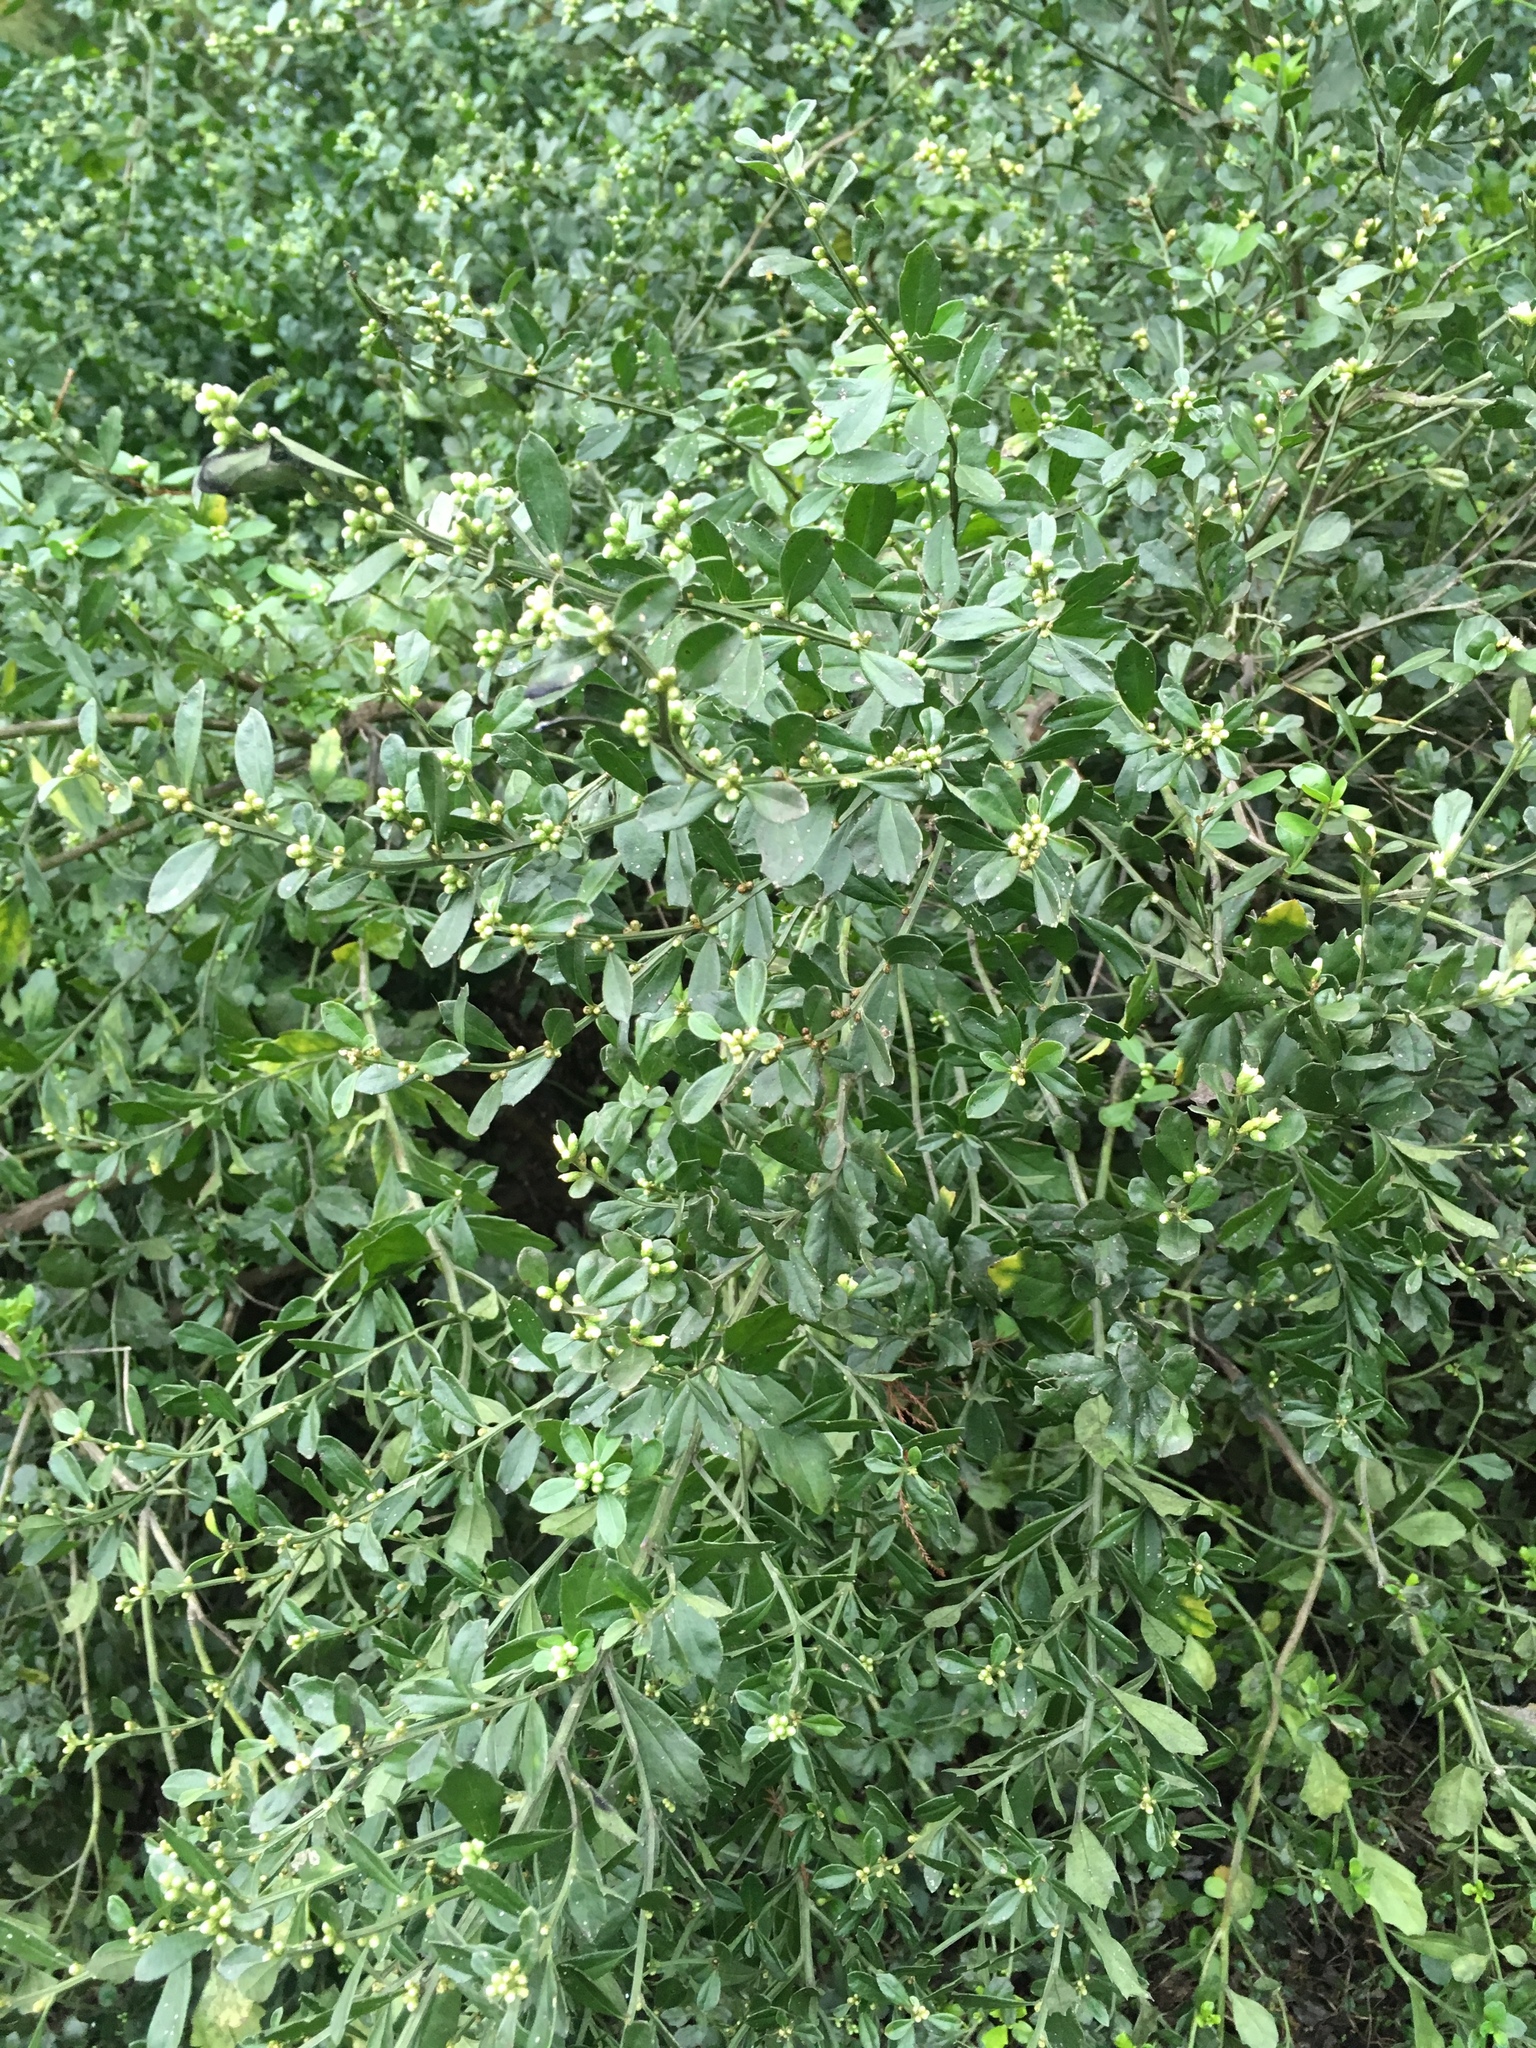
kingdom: Plantae
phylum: Tracheophyta
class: Magnoliopsida
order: Asterales
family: Asteraceae
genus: Baccharis
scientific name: Baccharis glomeruliflora
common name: Silverling groundsel bush
